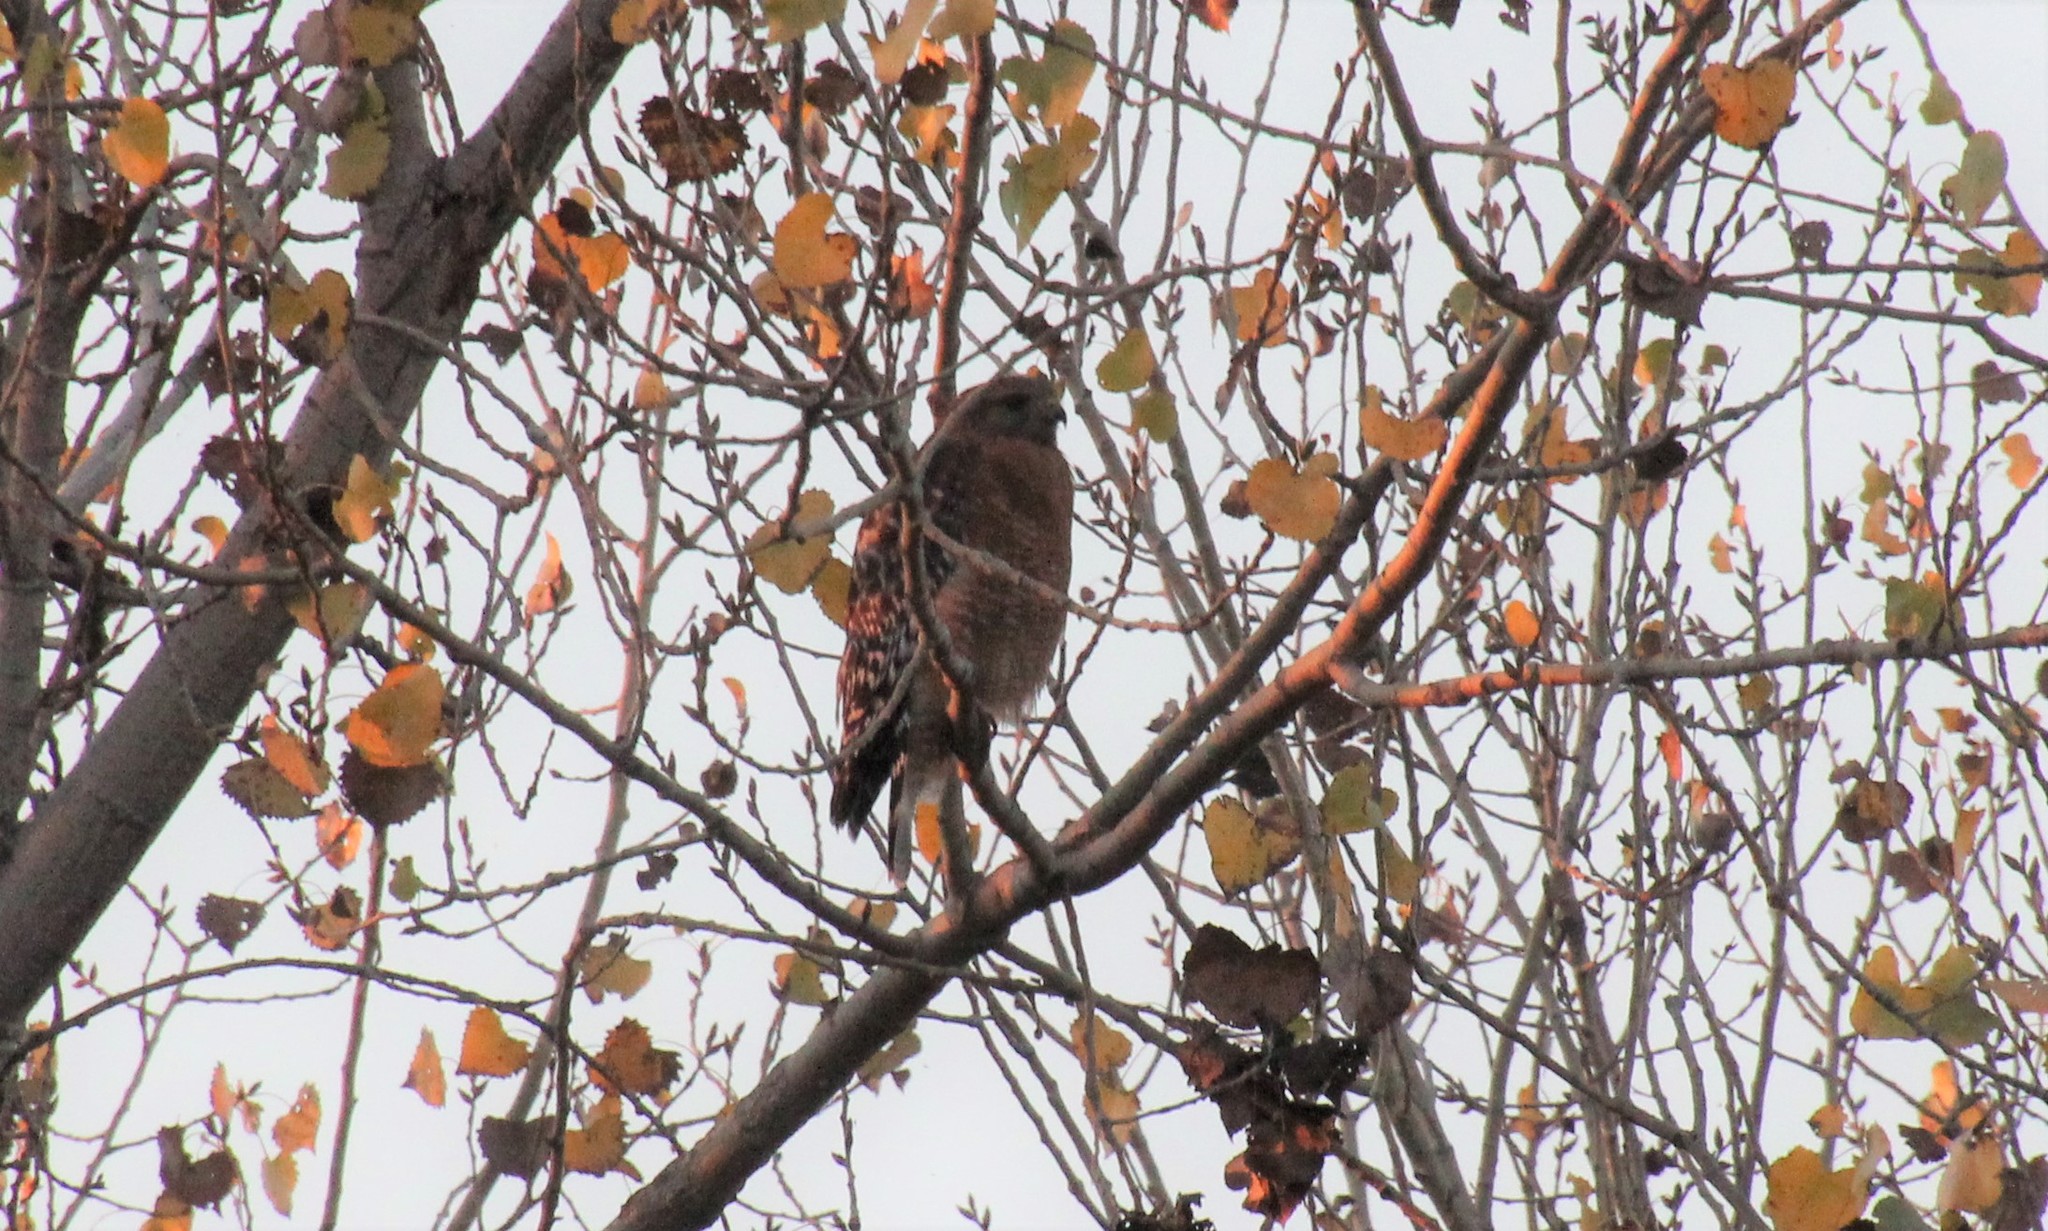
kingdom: Animalia
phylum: Chordata
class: Aves
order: Accipitriformes
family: Accipitridae
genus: Buteo
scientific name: Buteo lineatus
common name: Red-shouldered hawk
